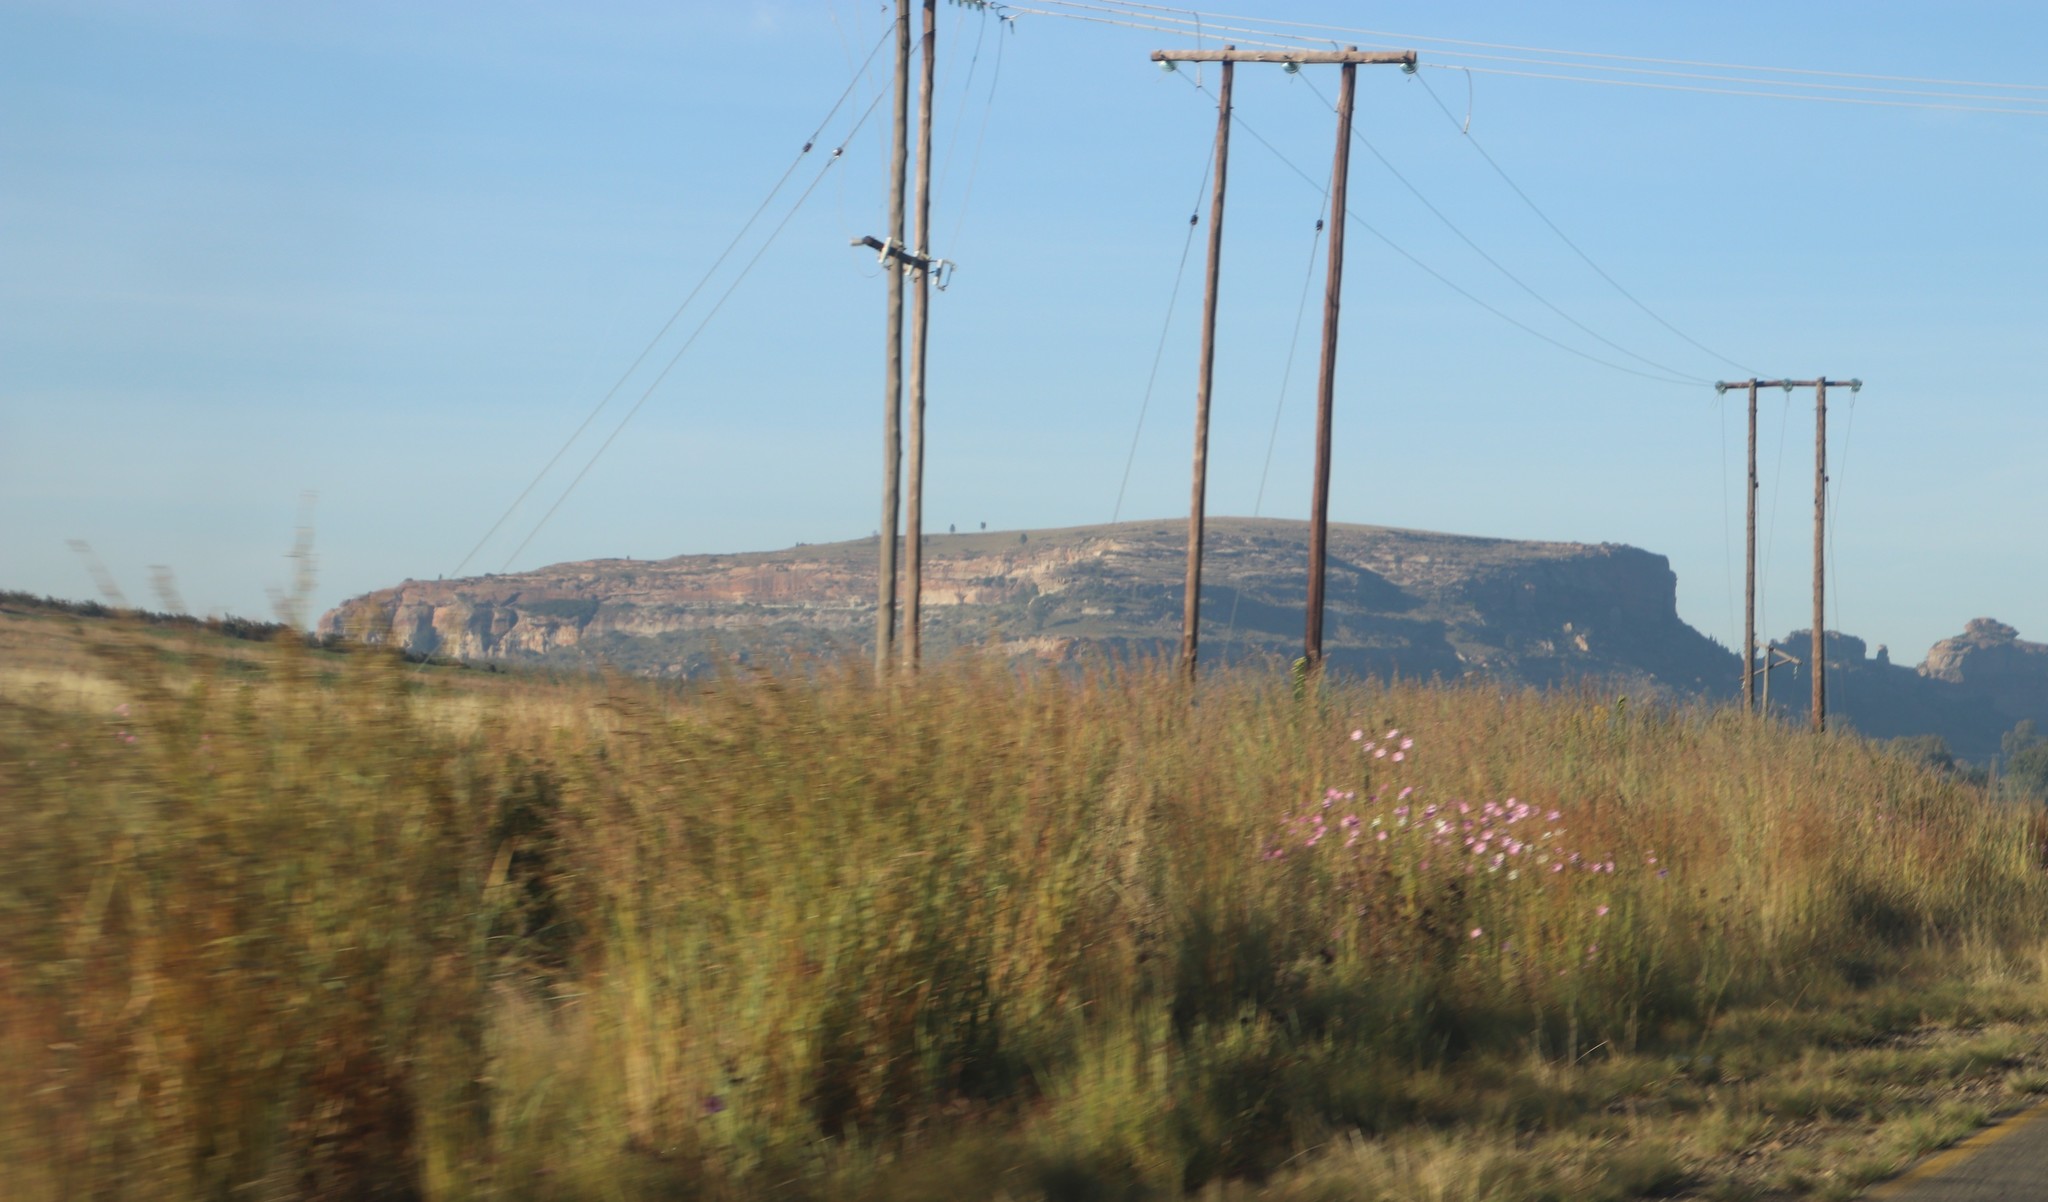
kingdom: Plantae
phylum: Tracheophyta
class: Magnoliopsida
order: Asterales
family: Asteraceae
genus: Cosmos
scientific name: Cosmos bipinnatus
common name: Garden cosmos
